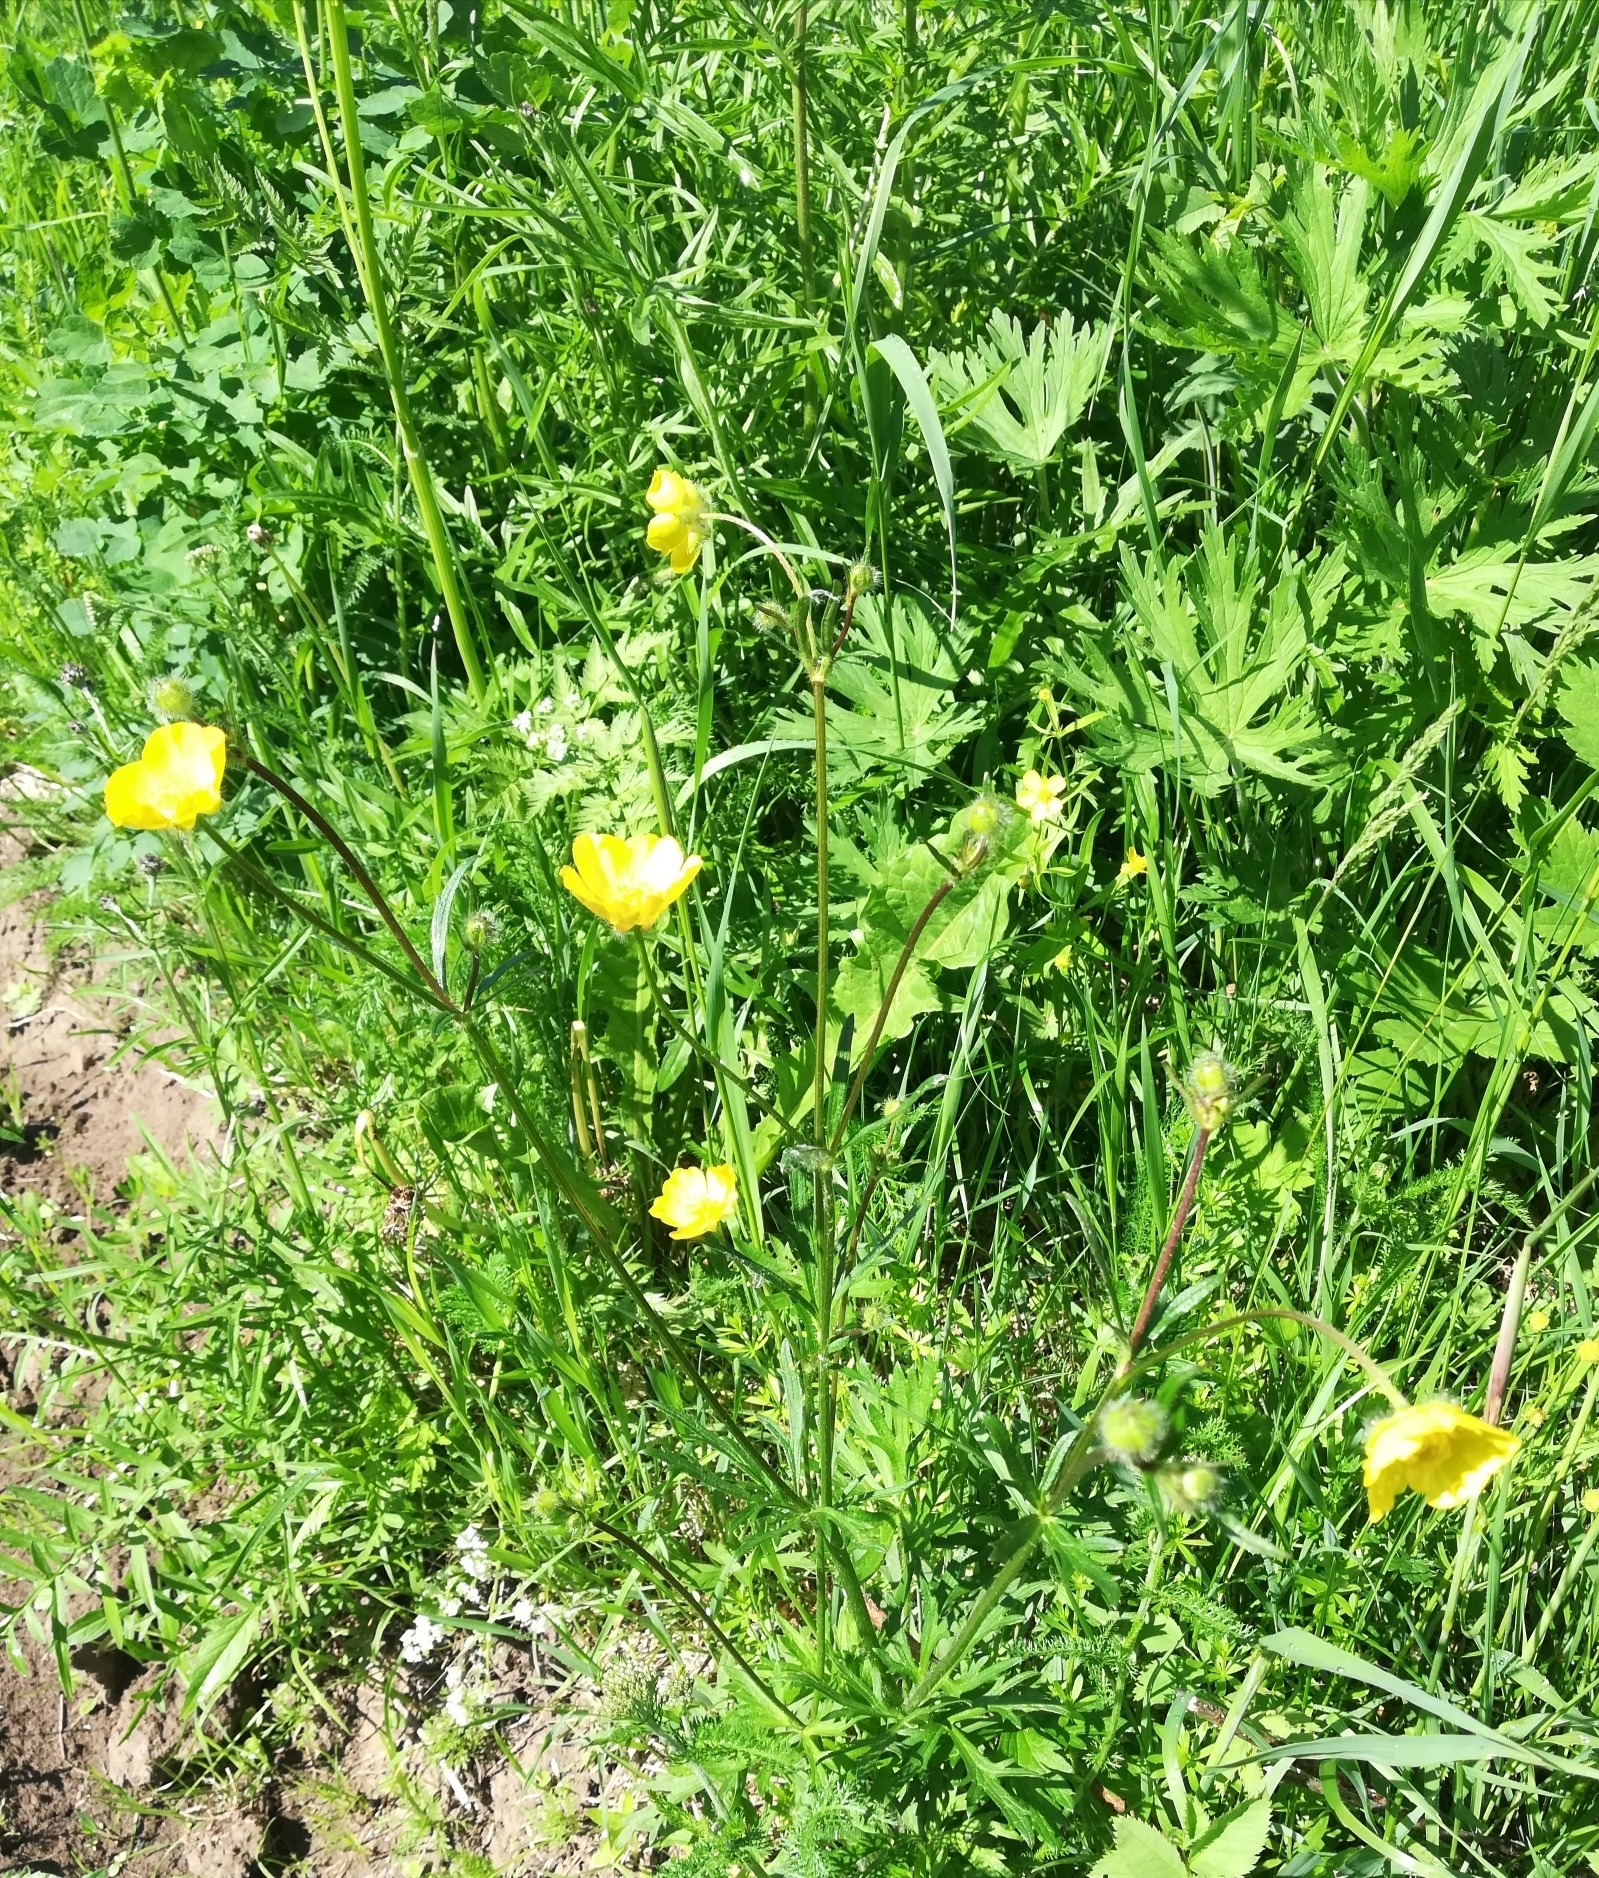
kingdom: Plantae
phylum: Tracheophyta
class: Magnoliopsida
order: Ranunculales
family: Ranunculaceae
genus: Ranunculus
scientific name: Ranunculus polyanthemos
